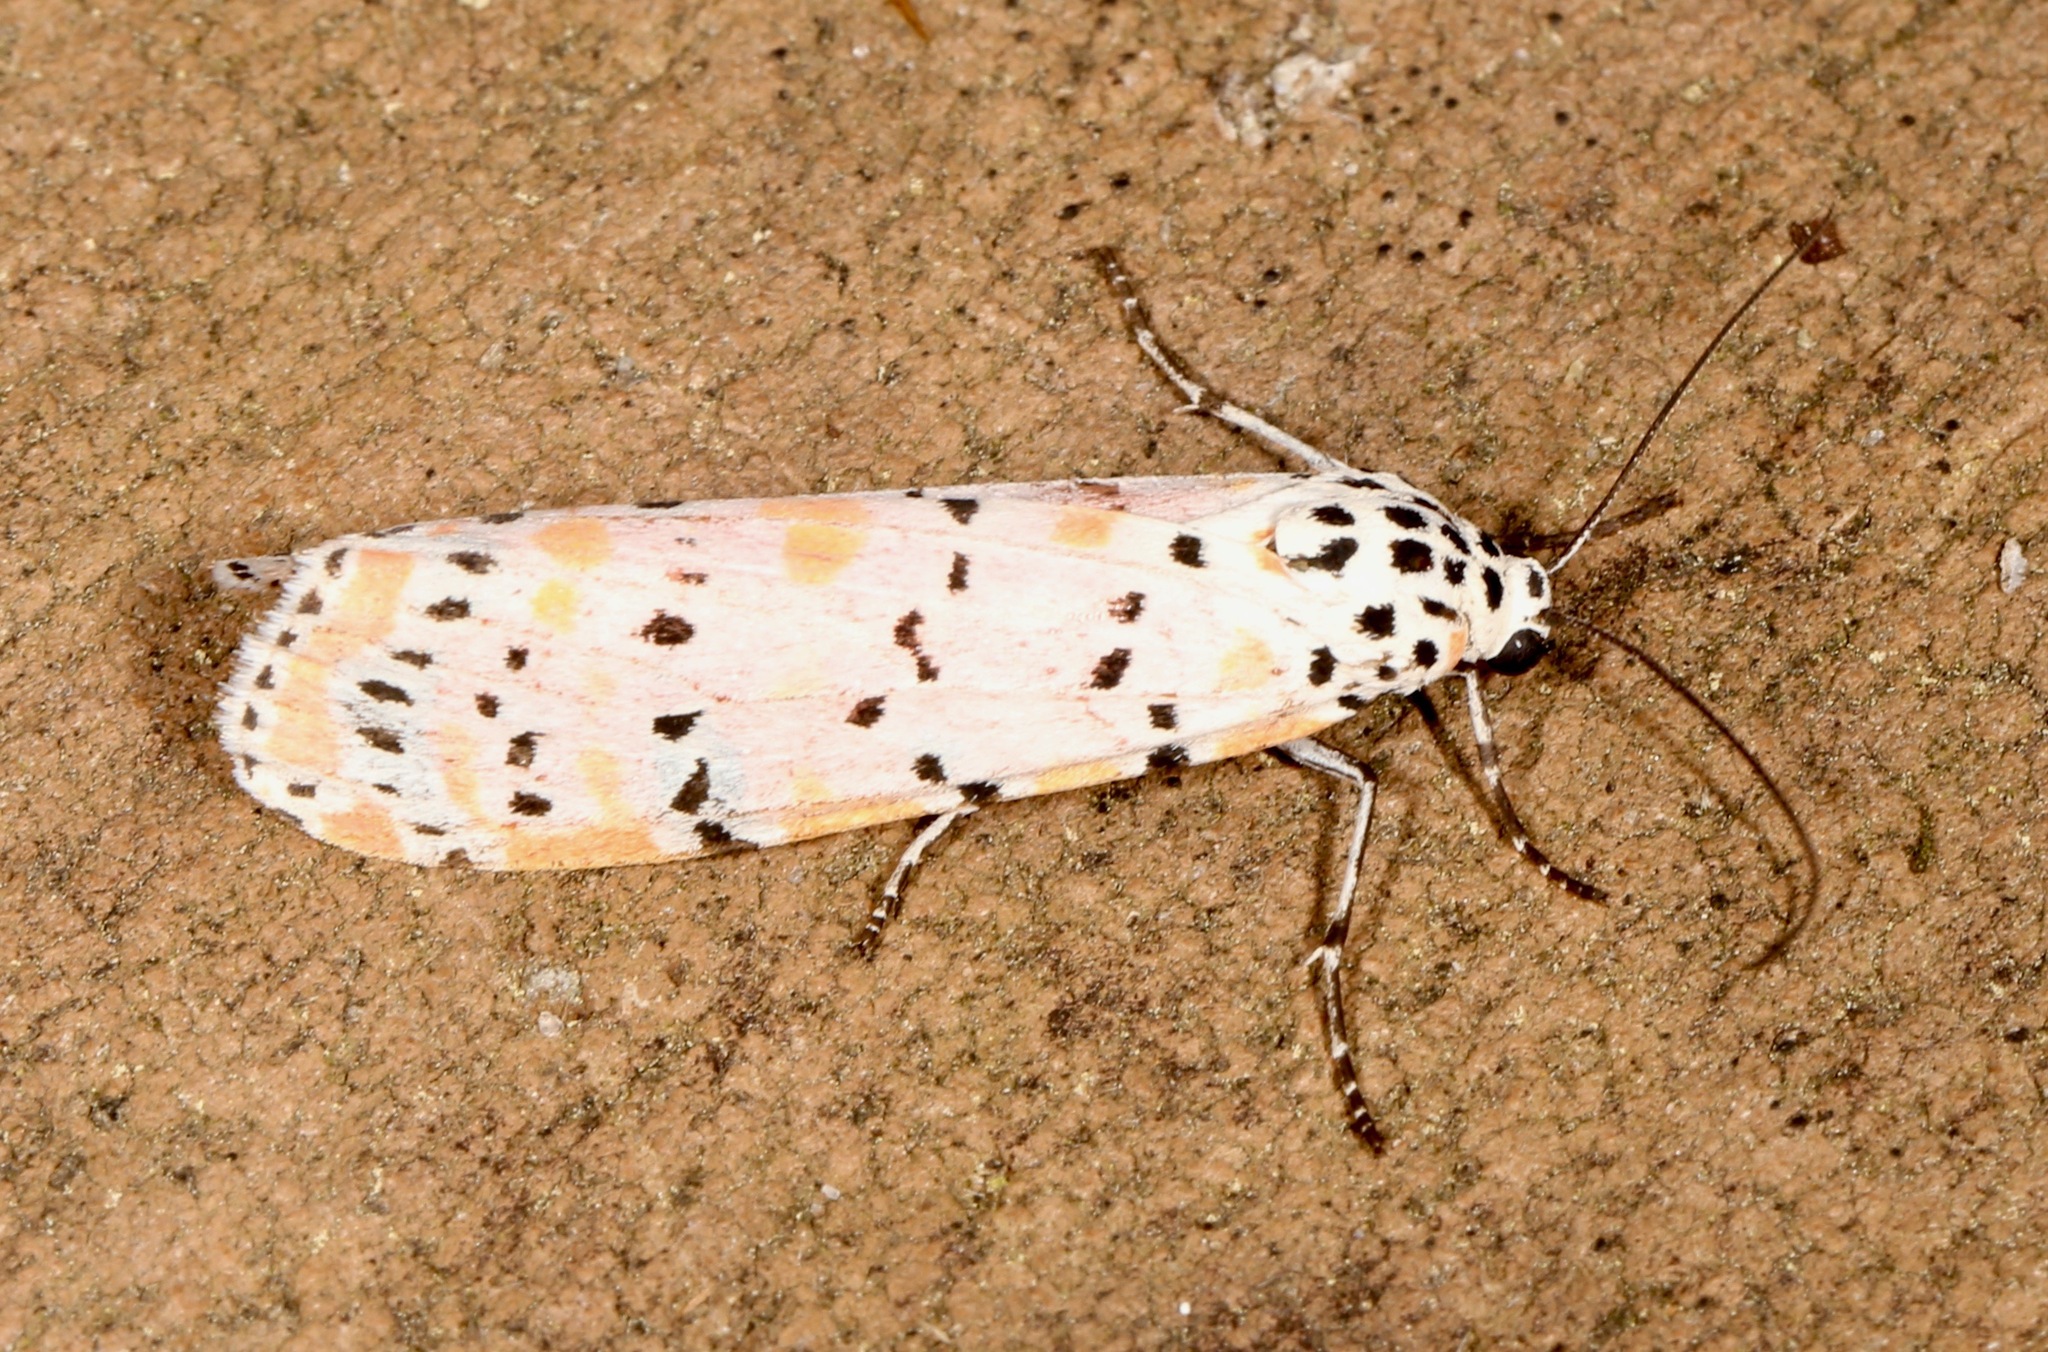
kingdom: Animalia
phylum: Arthropoda
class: Insecta
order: Lepidoptera
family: Erebidae
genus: Utetheisa
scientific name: Utetheisa ornatrix
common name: Beautiful utetheisa
